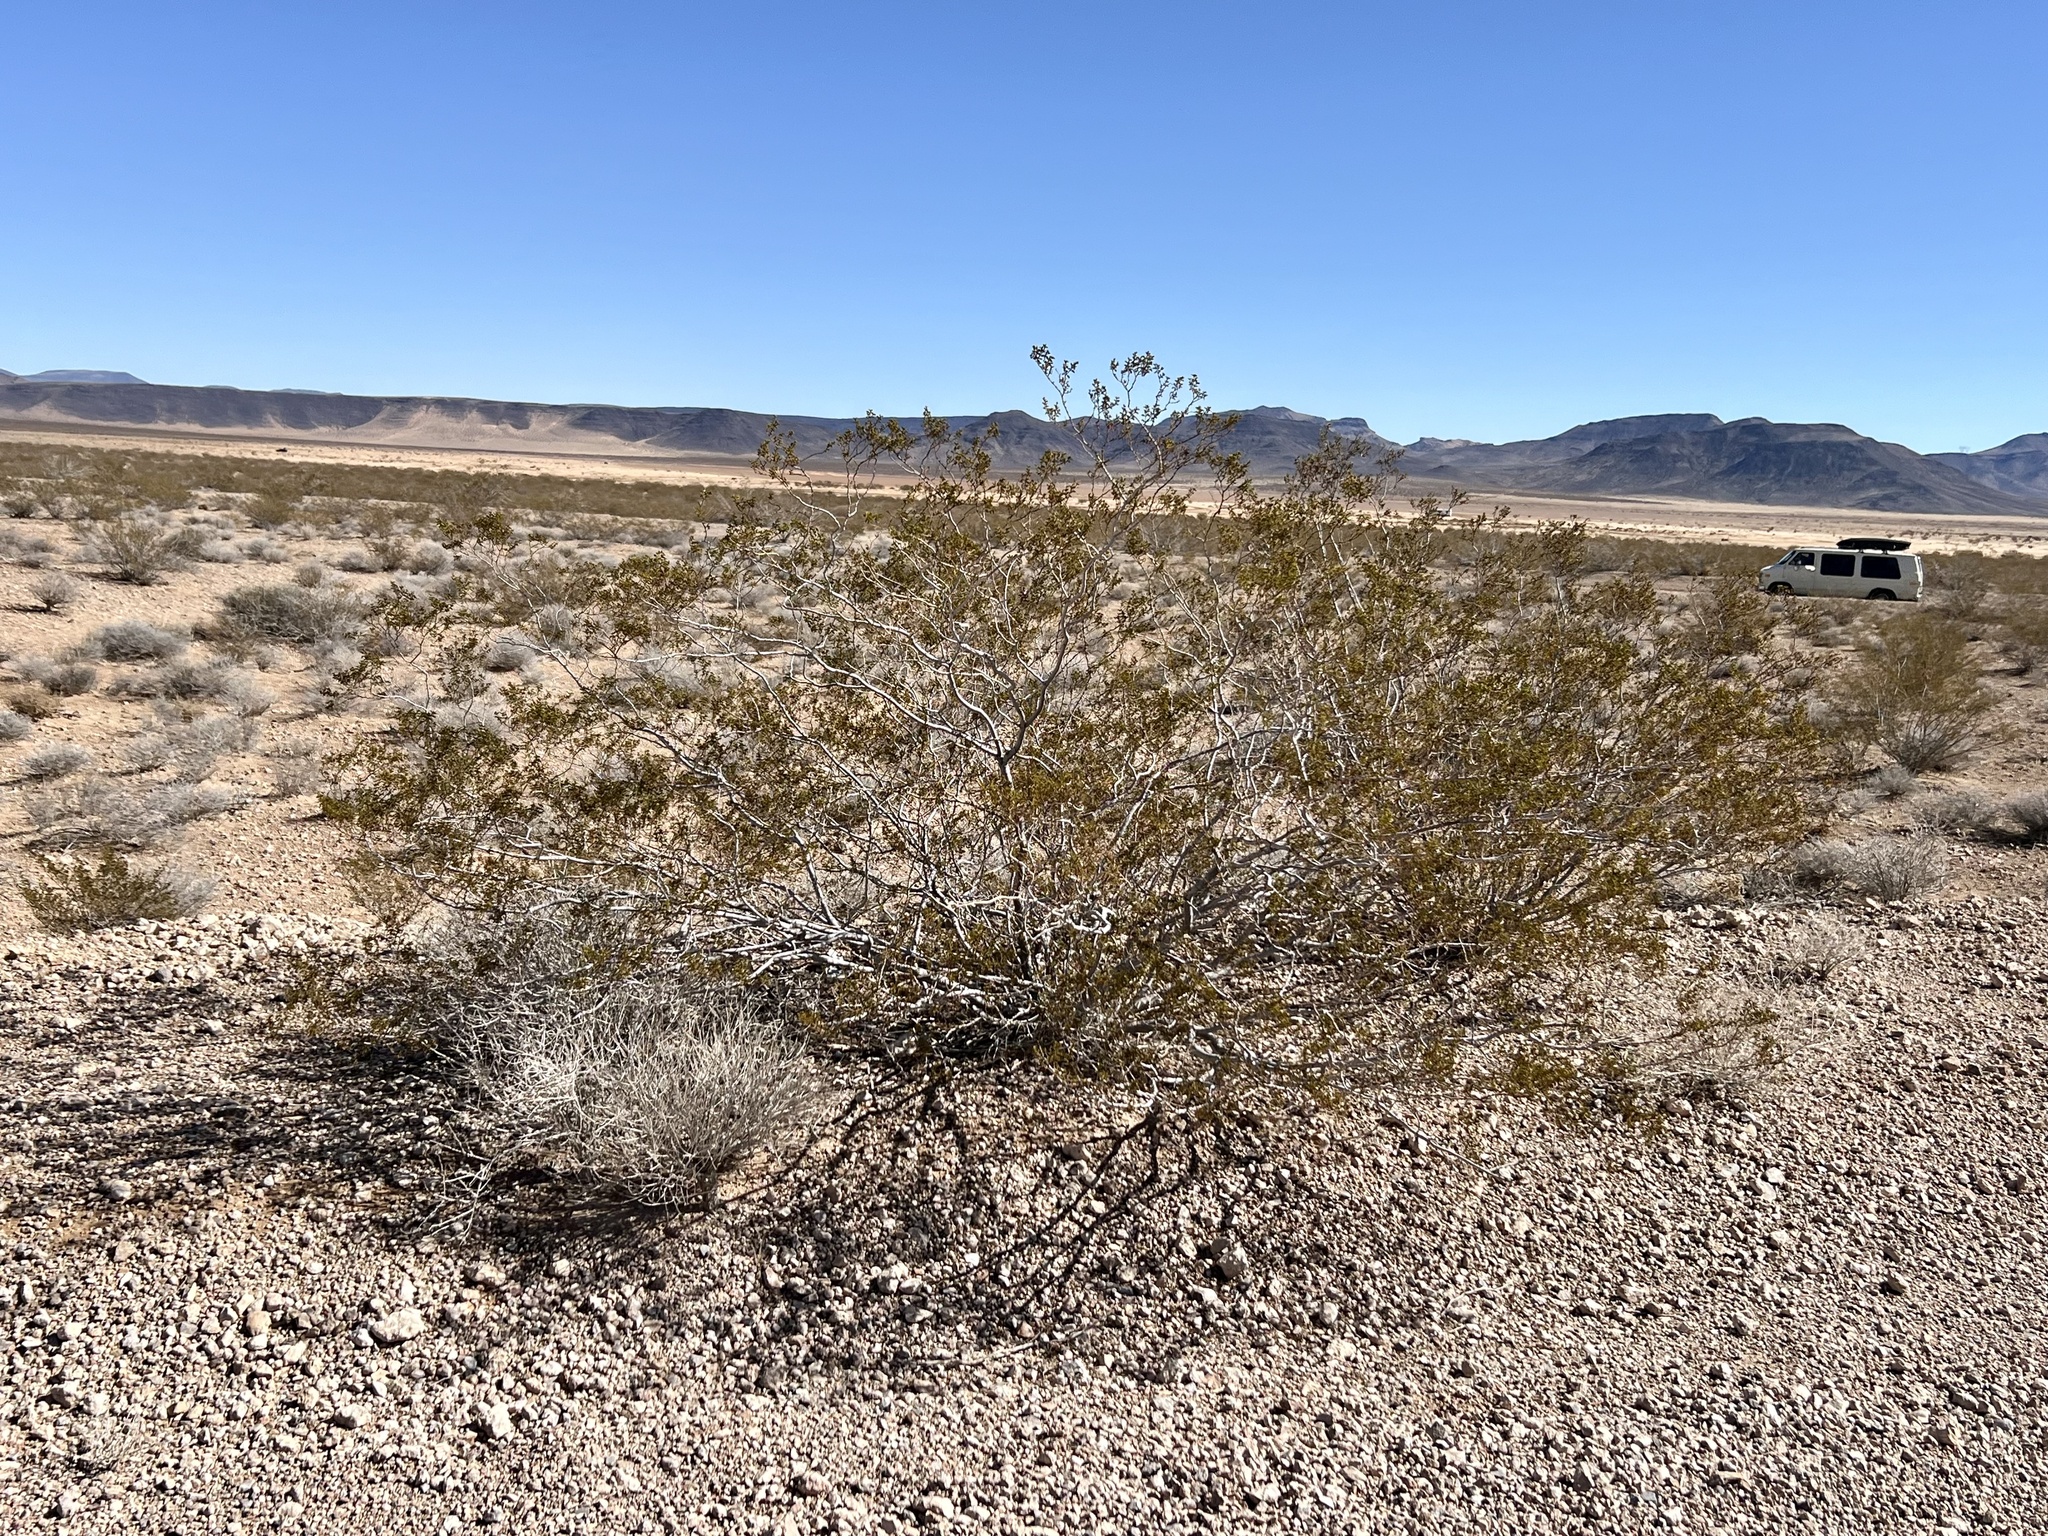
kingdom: Plantae
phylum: Tracheophyta
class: Magnoliopsida
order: Zygophyllales
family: Zygophyllaceae
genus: Larrea
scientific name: Larrea tridentata
